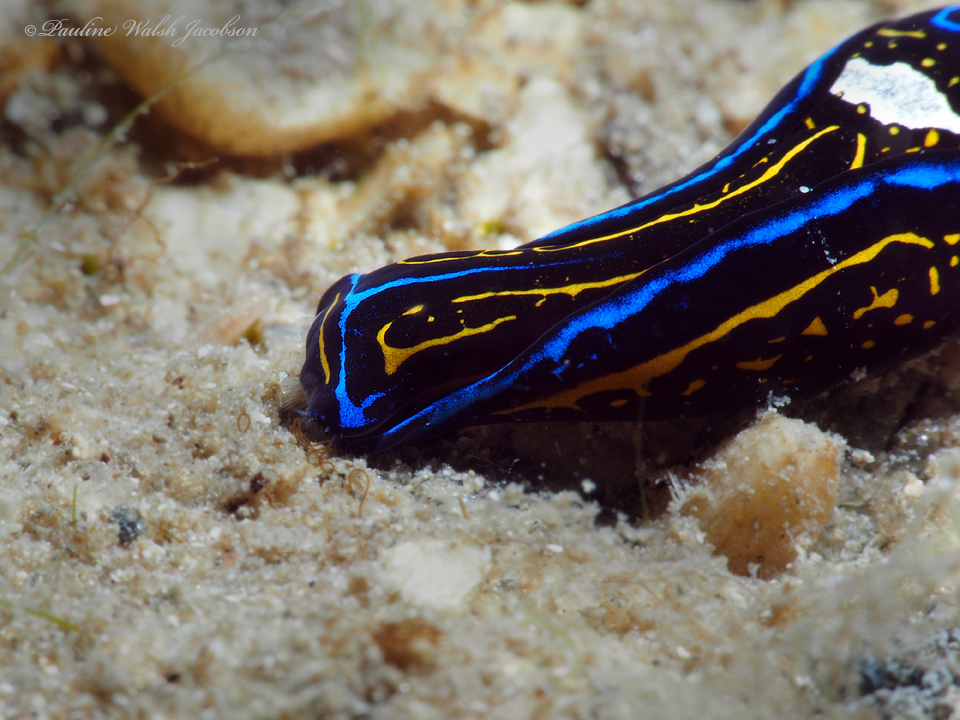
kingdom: Animalia
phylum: Mollusca
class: Gastropoda
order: Cephalaspidea
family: Aglajidae
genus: Chelidonura
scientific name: Chelidonura hirundinina
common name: Leech headshield slug
